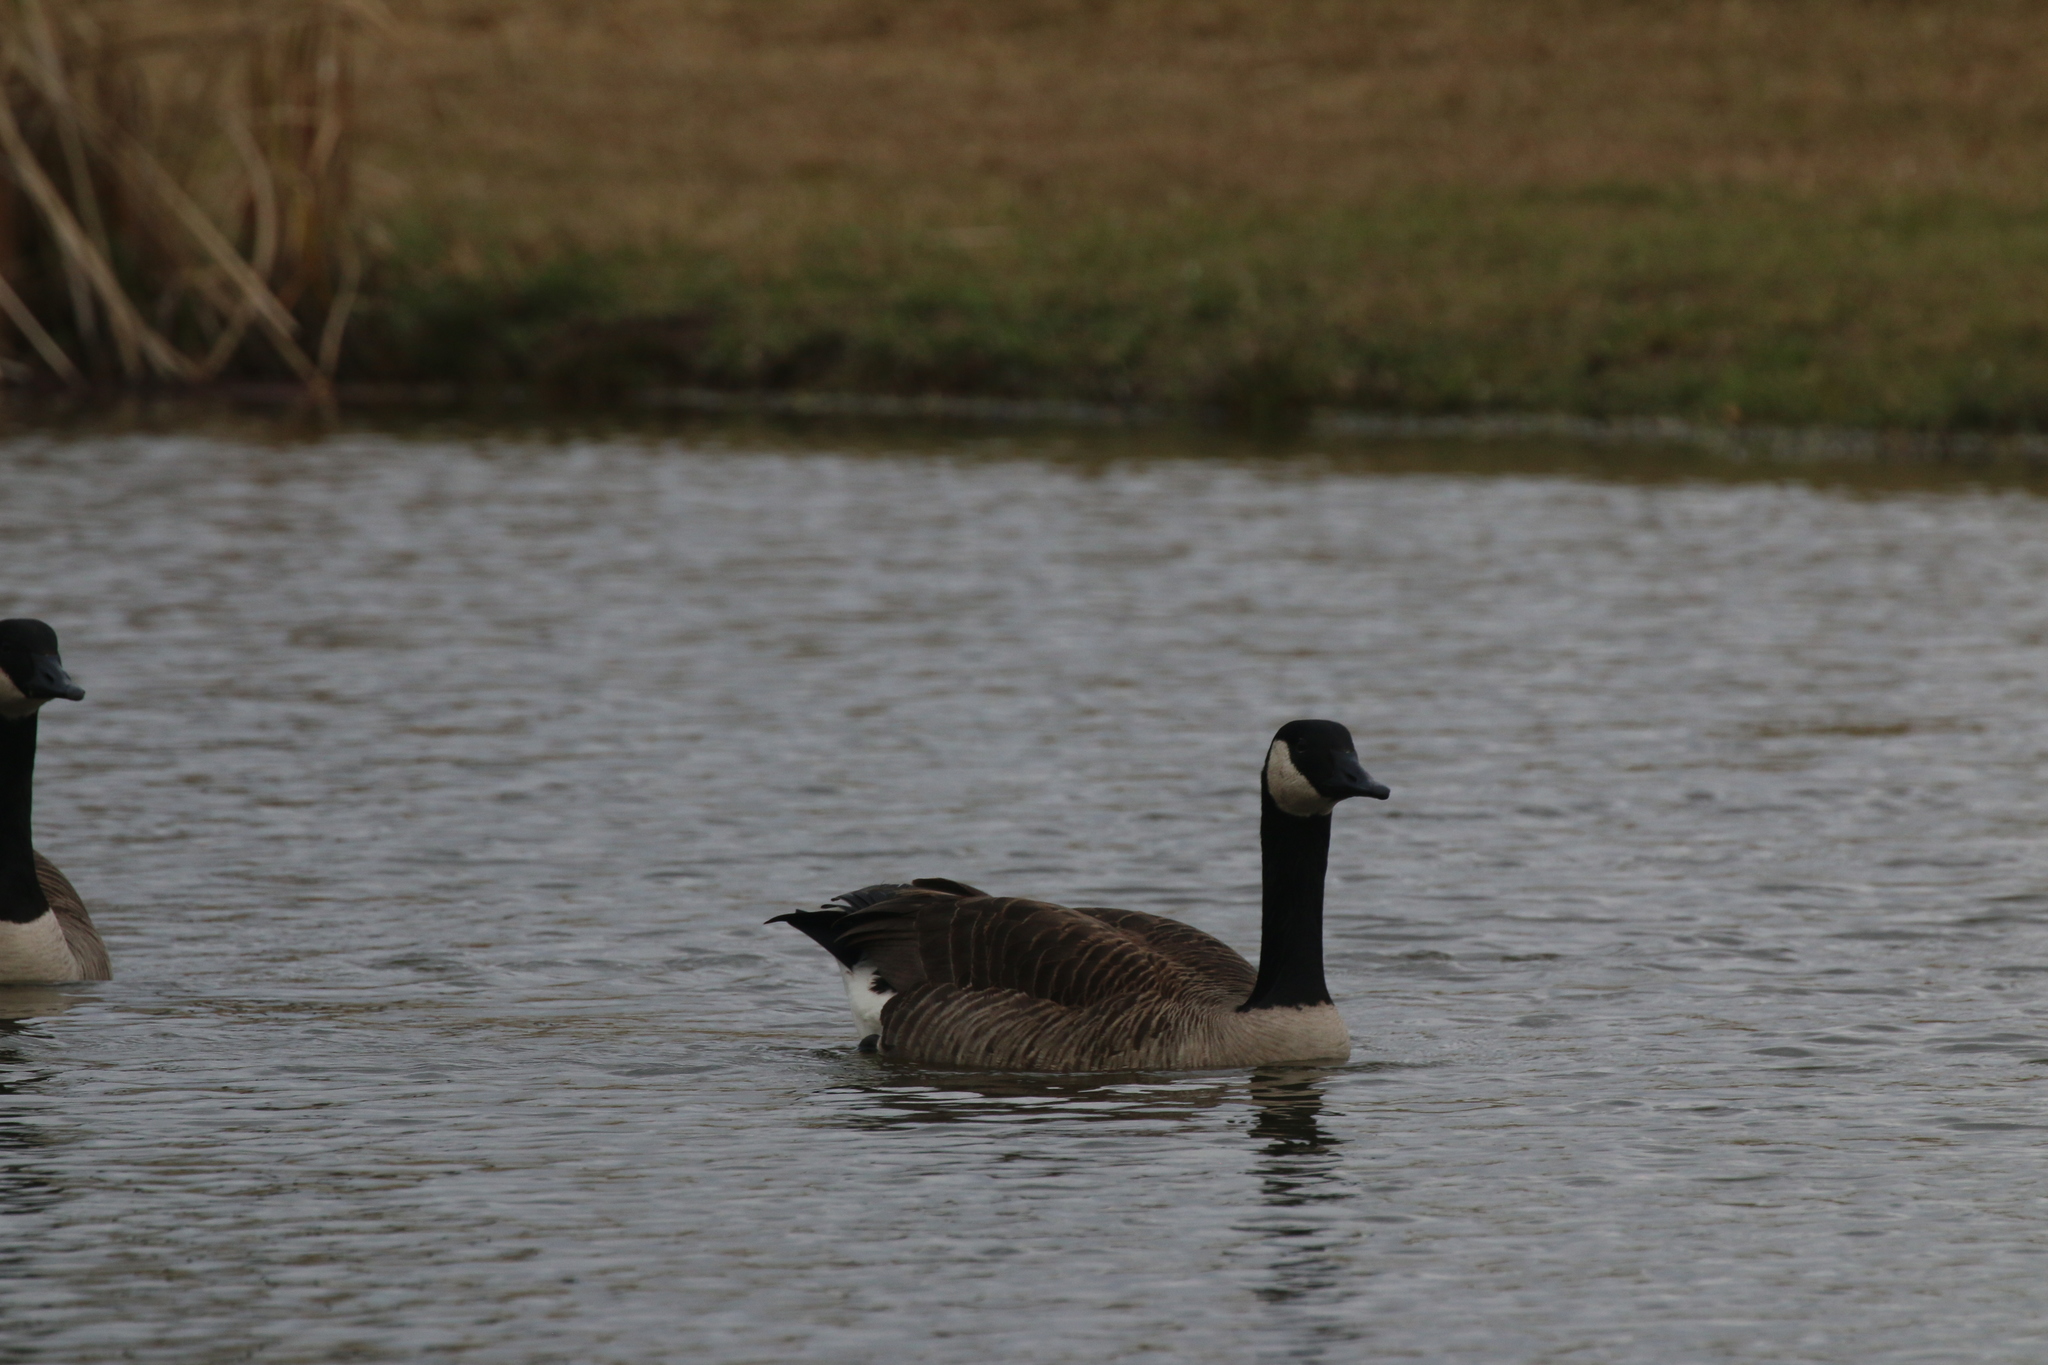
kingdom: Animalia
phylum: Chordata
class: Aves
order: Anseriformes
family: Anatidae
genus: Branta
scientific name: Branta canadensis
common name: Canada goose
